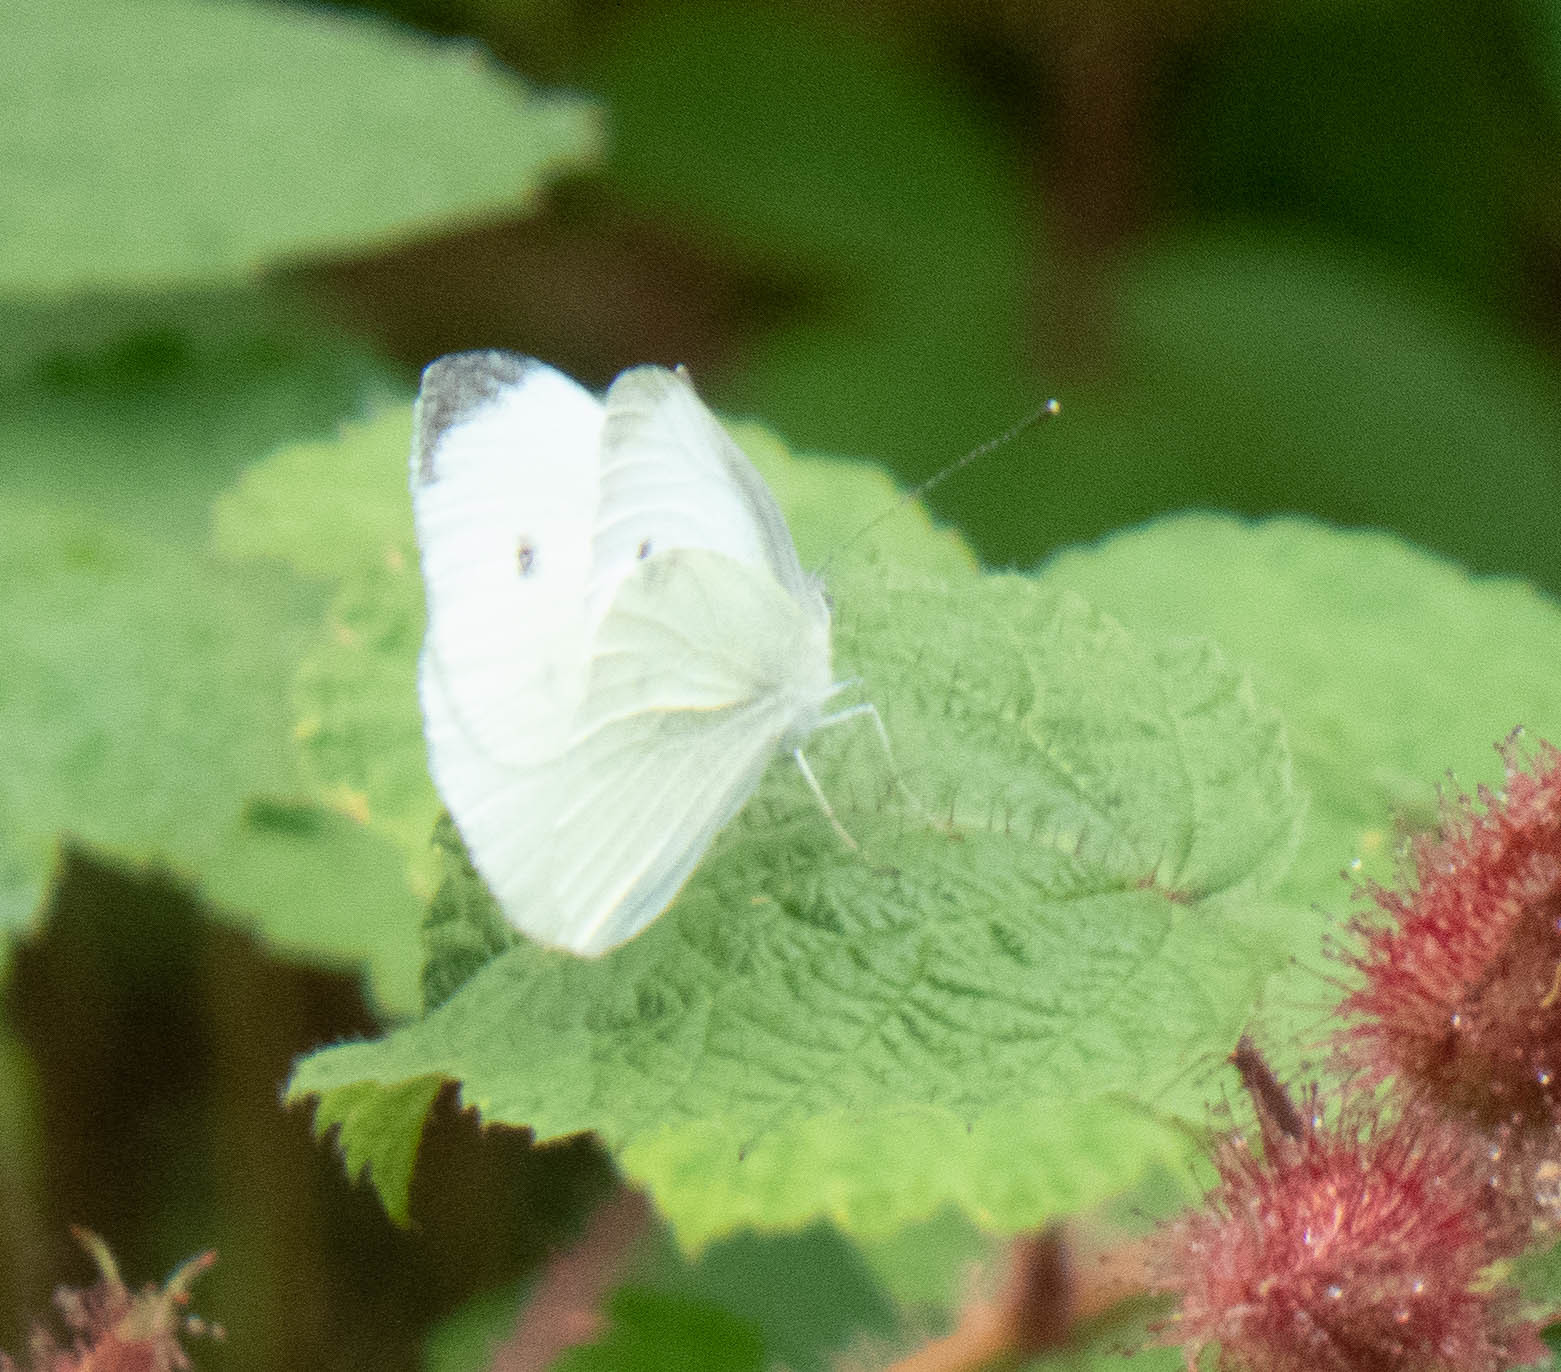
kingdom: Animalia
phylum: Arthropoda
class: Insecta
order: Lepidoptera
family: Pieridae
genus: Pieris
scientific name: Pieris rapae
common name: Small white
